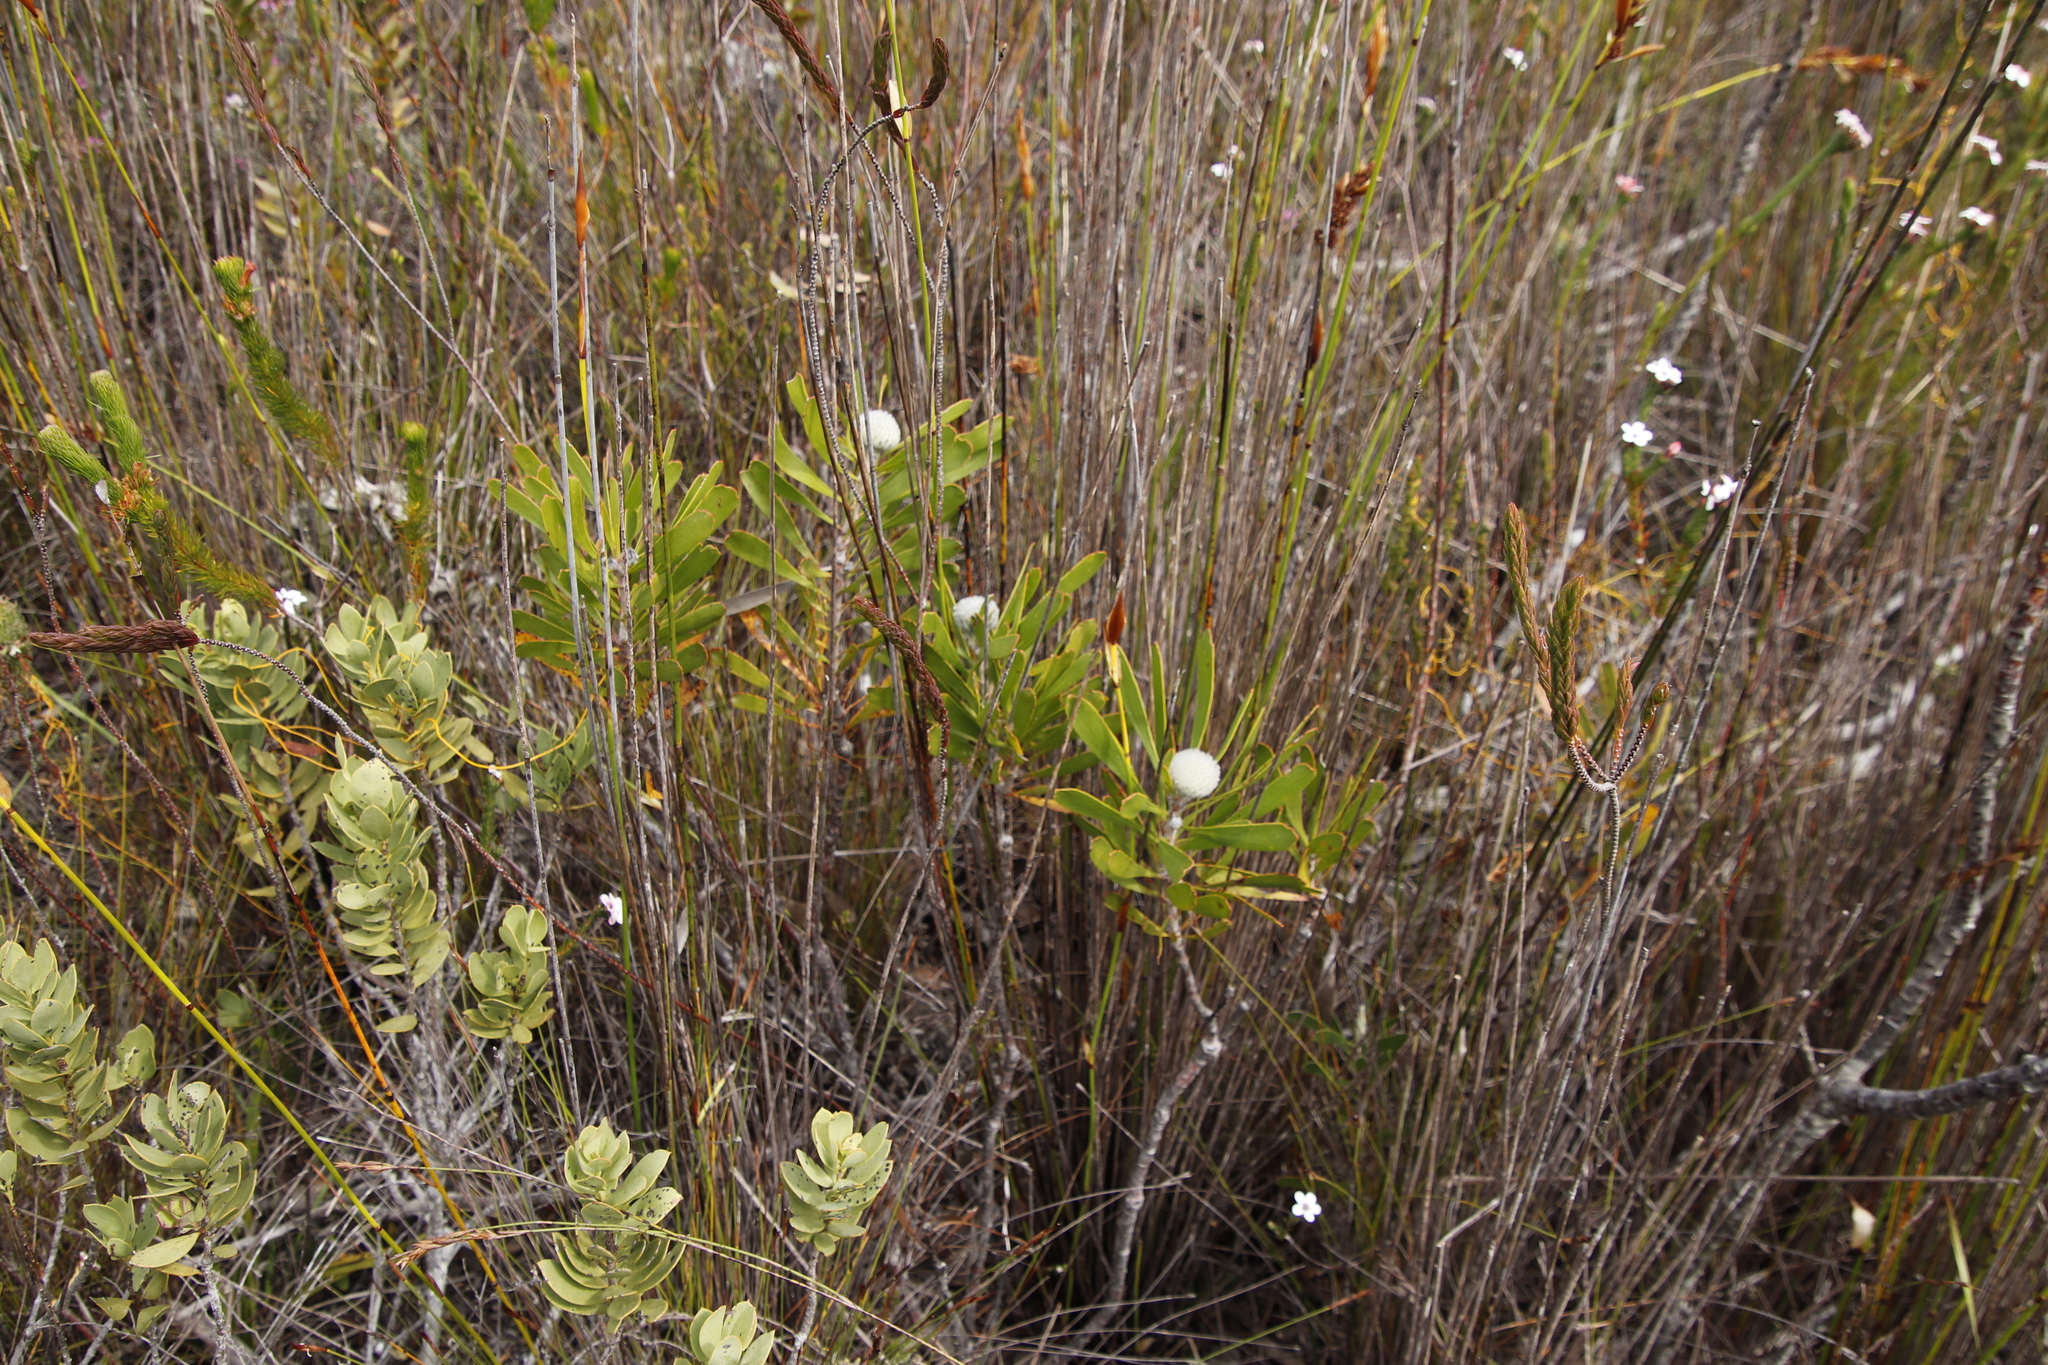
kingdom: Plantae
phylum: Tracheophyta
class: Magnoliopsida
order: Proteales
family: Proteaceae
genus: Leucospermum
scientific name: Leucospermum truncatum
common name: Limestone pincushion
